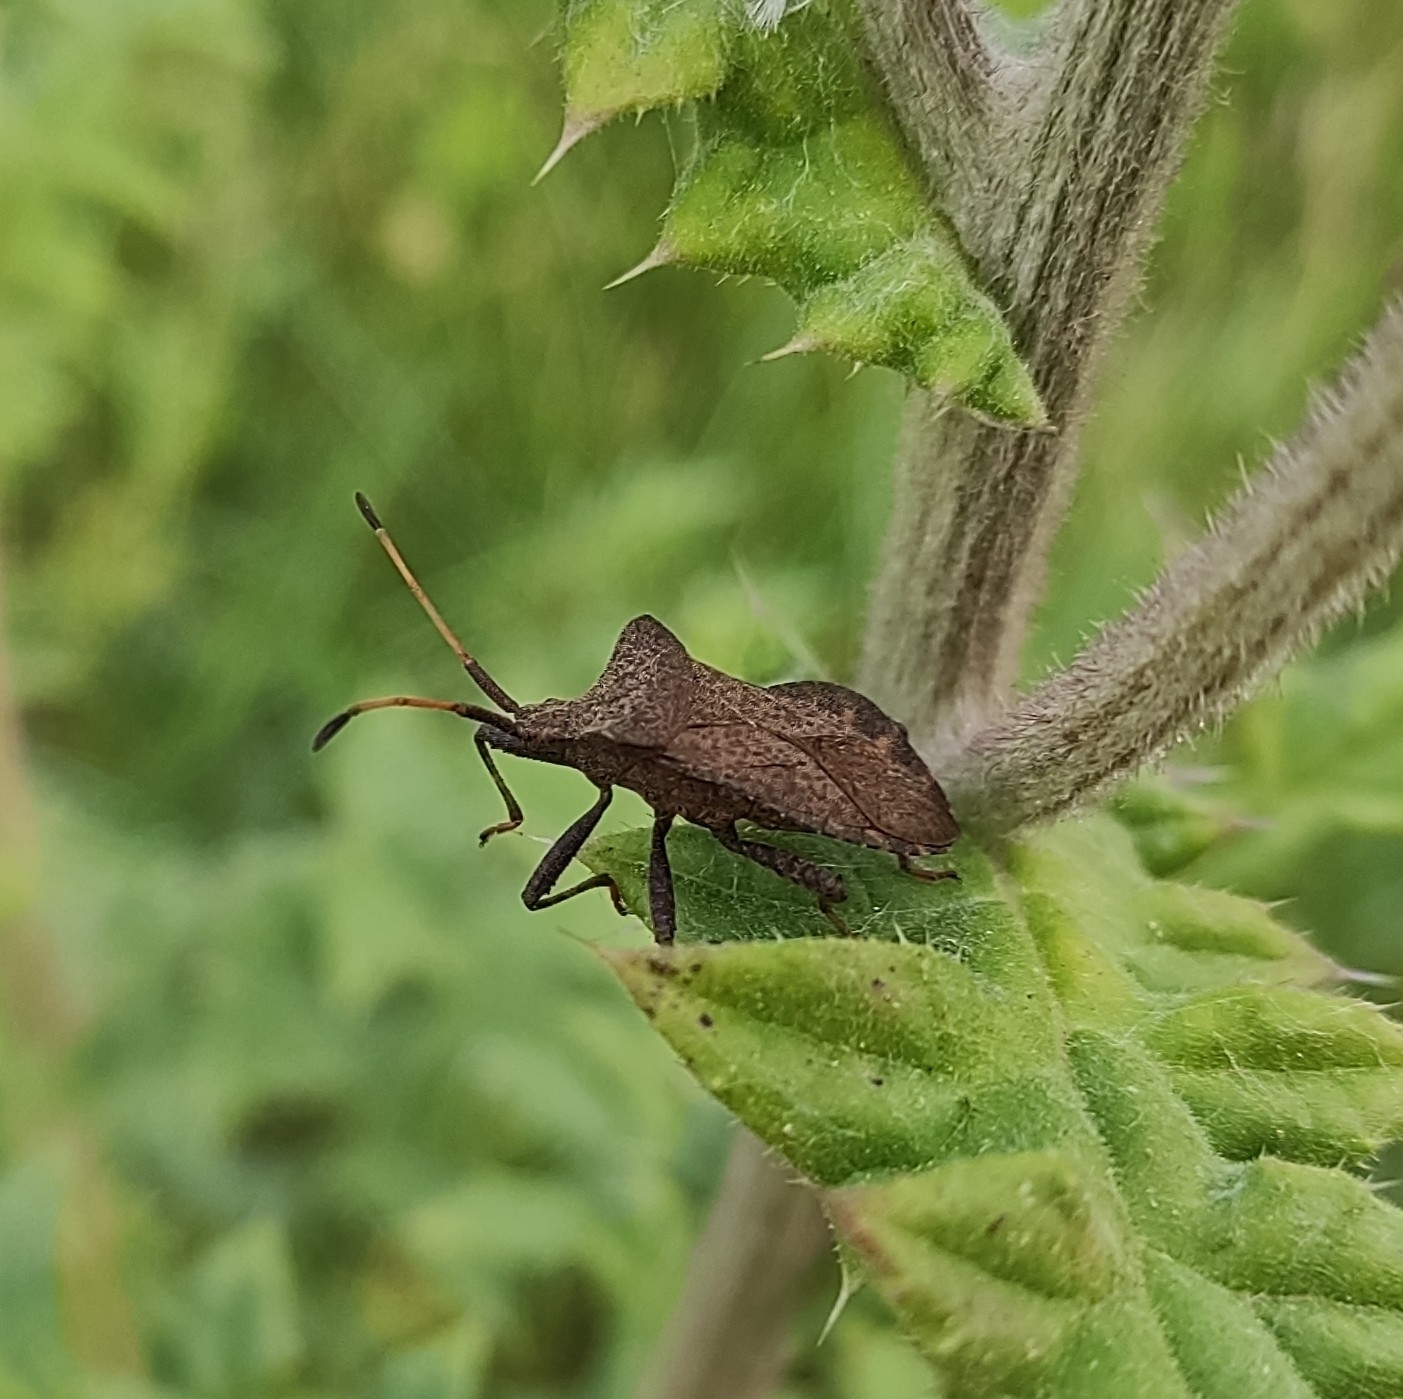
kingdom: Animalia
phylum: Arthropoda
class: Insecta
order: Hemiptera
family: Coreidae
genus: Coreus
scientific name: Coreus marginatus
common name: Dock bug
